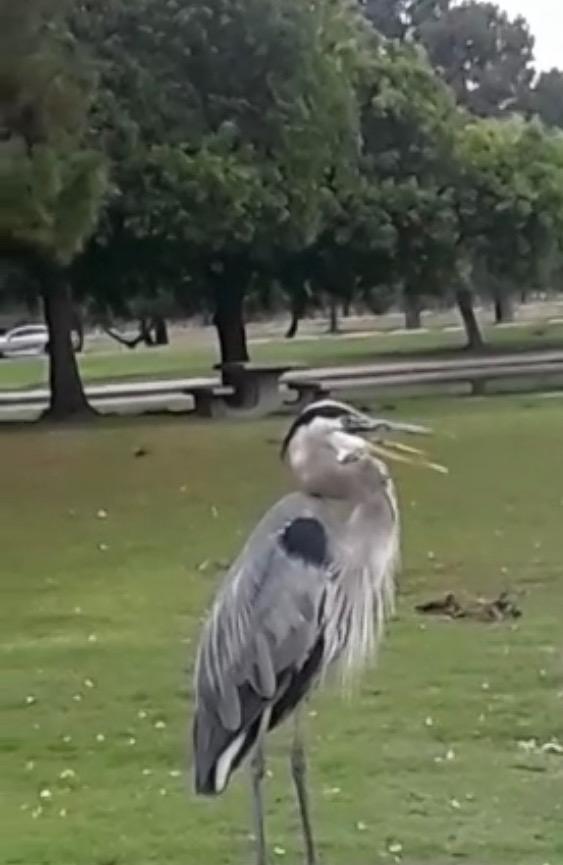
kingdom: Animalia
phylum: Chordata
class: Aves
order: Pelecaniformes
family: Ardeidae
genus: Ardea
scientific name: Ardea herodias
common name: Great blue heron
